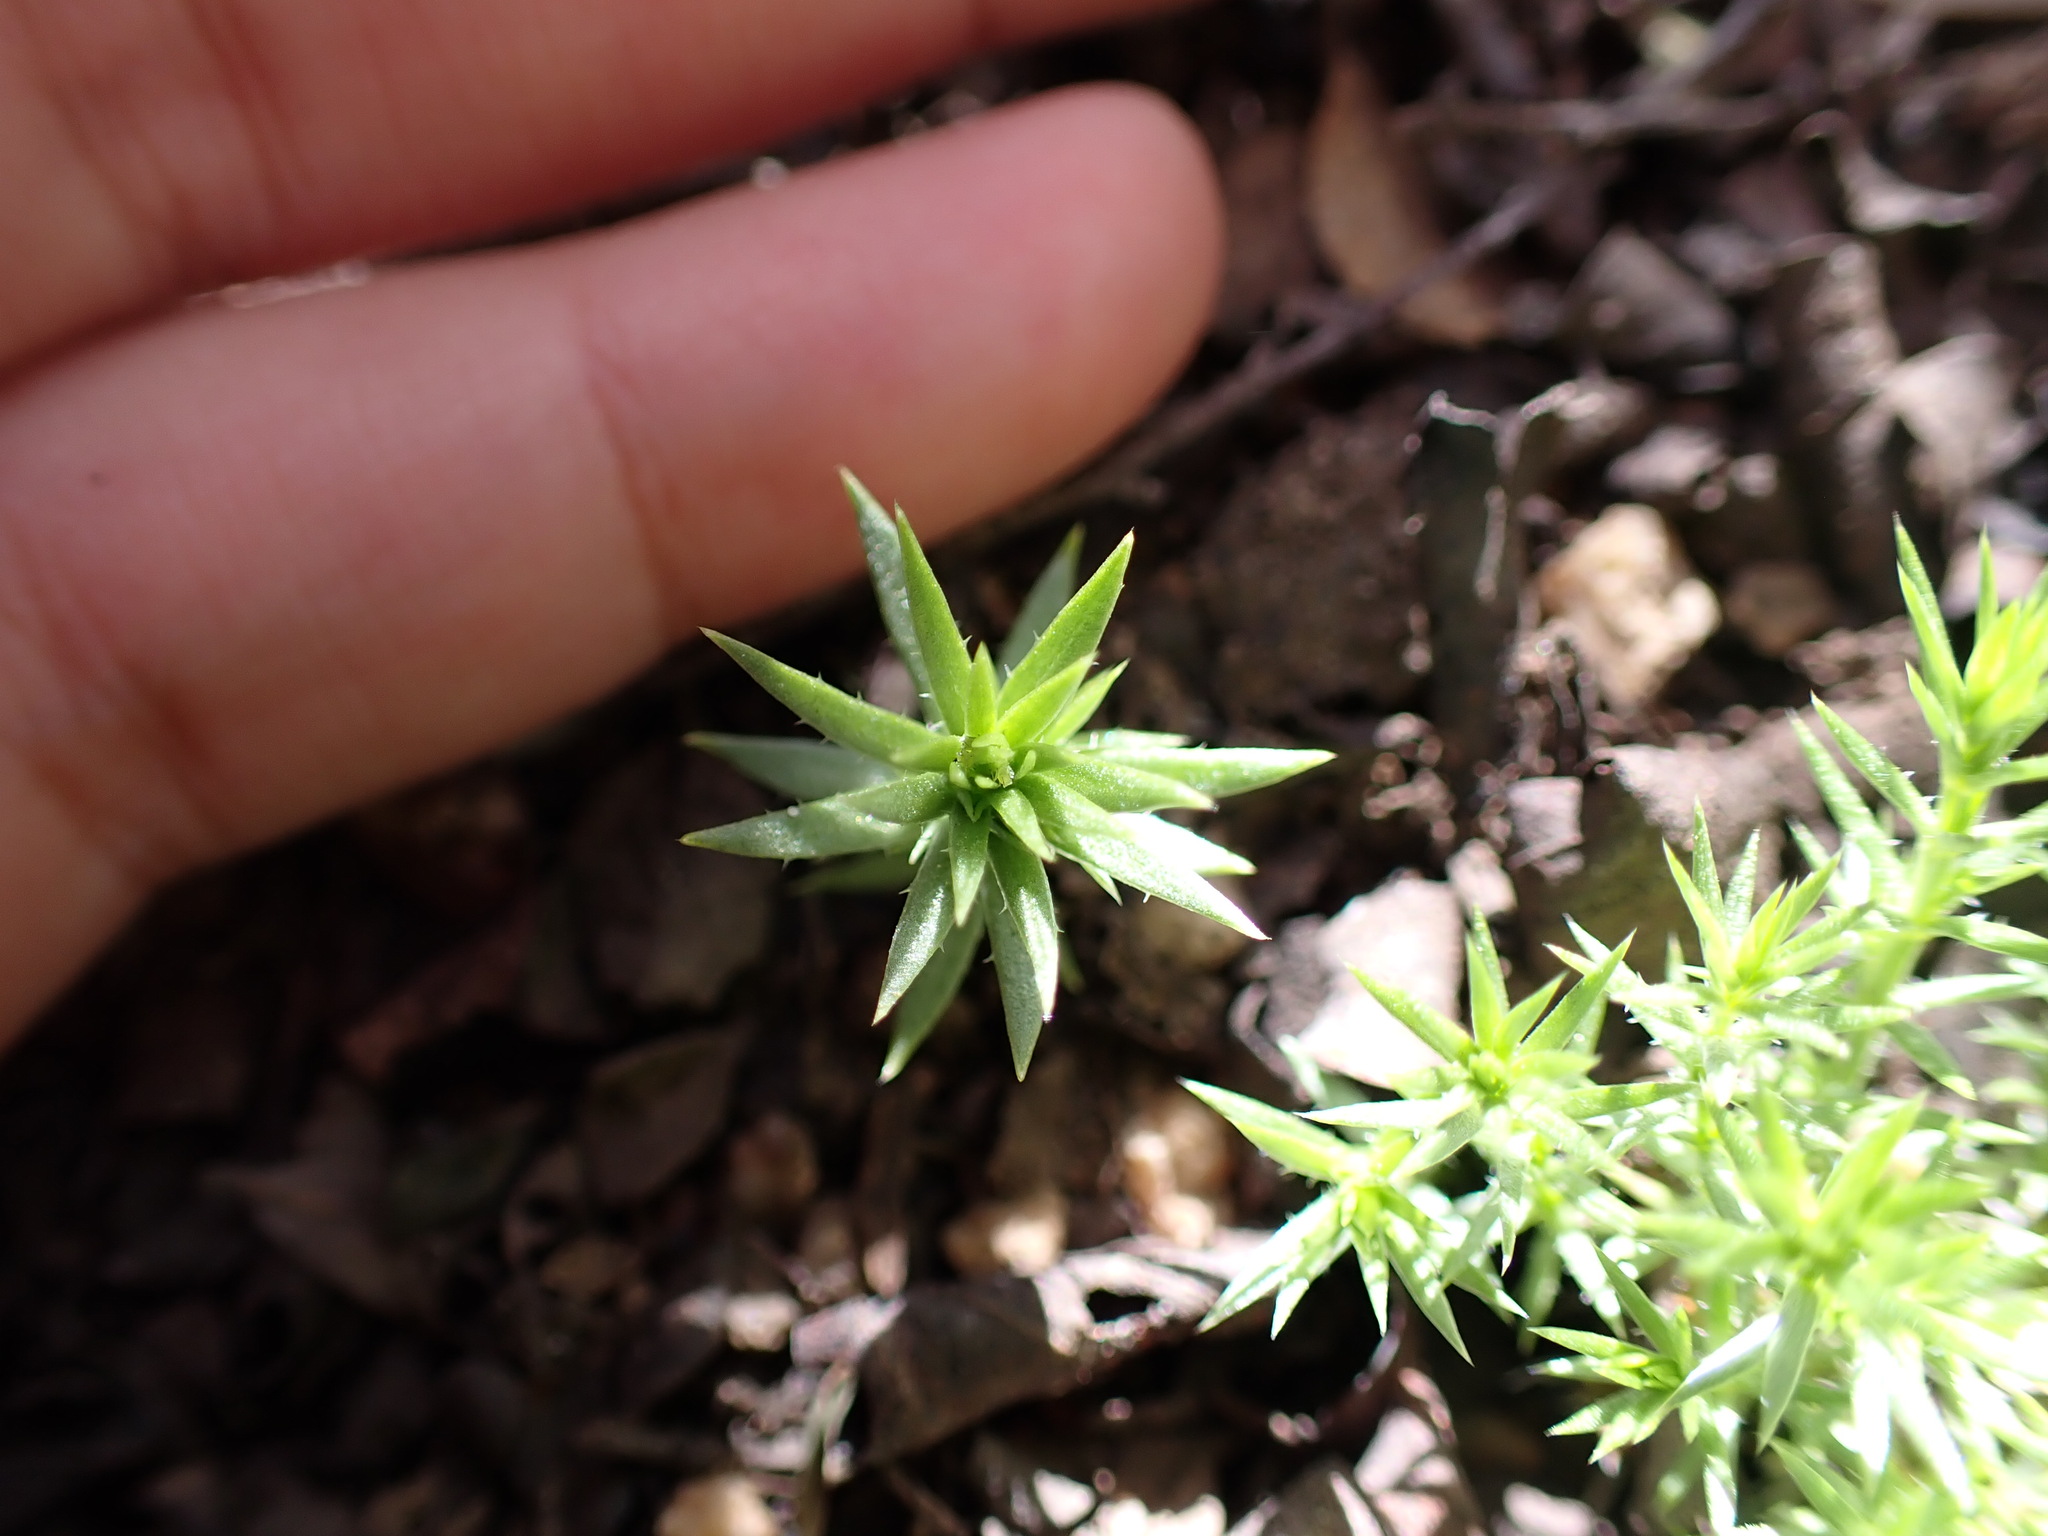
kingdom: Plantae
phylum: Tracheophyta
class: Magnoliopsida
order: Gentianales
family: Rubiaceae
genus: Galium
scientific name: Galium andrewsii
